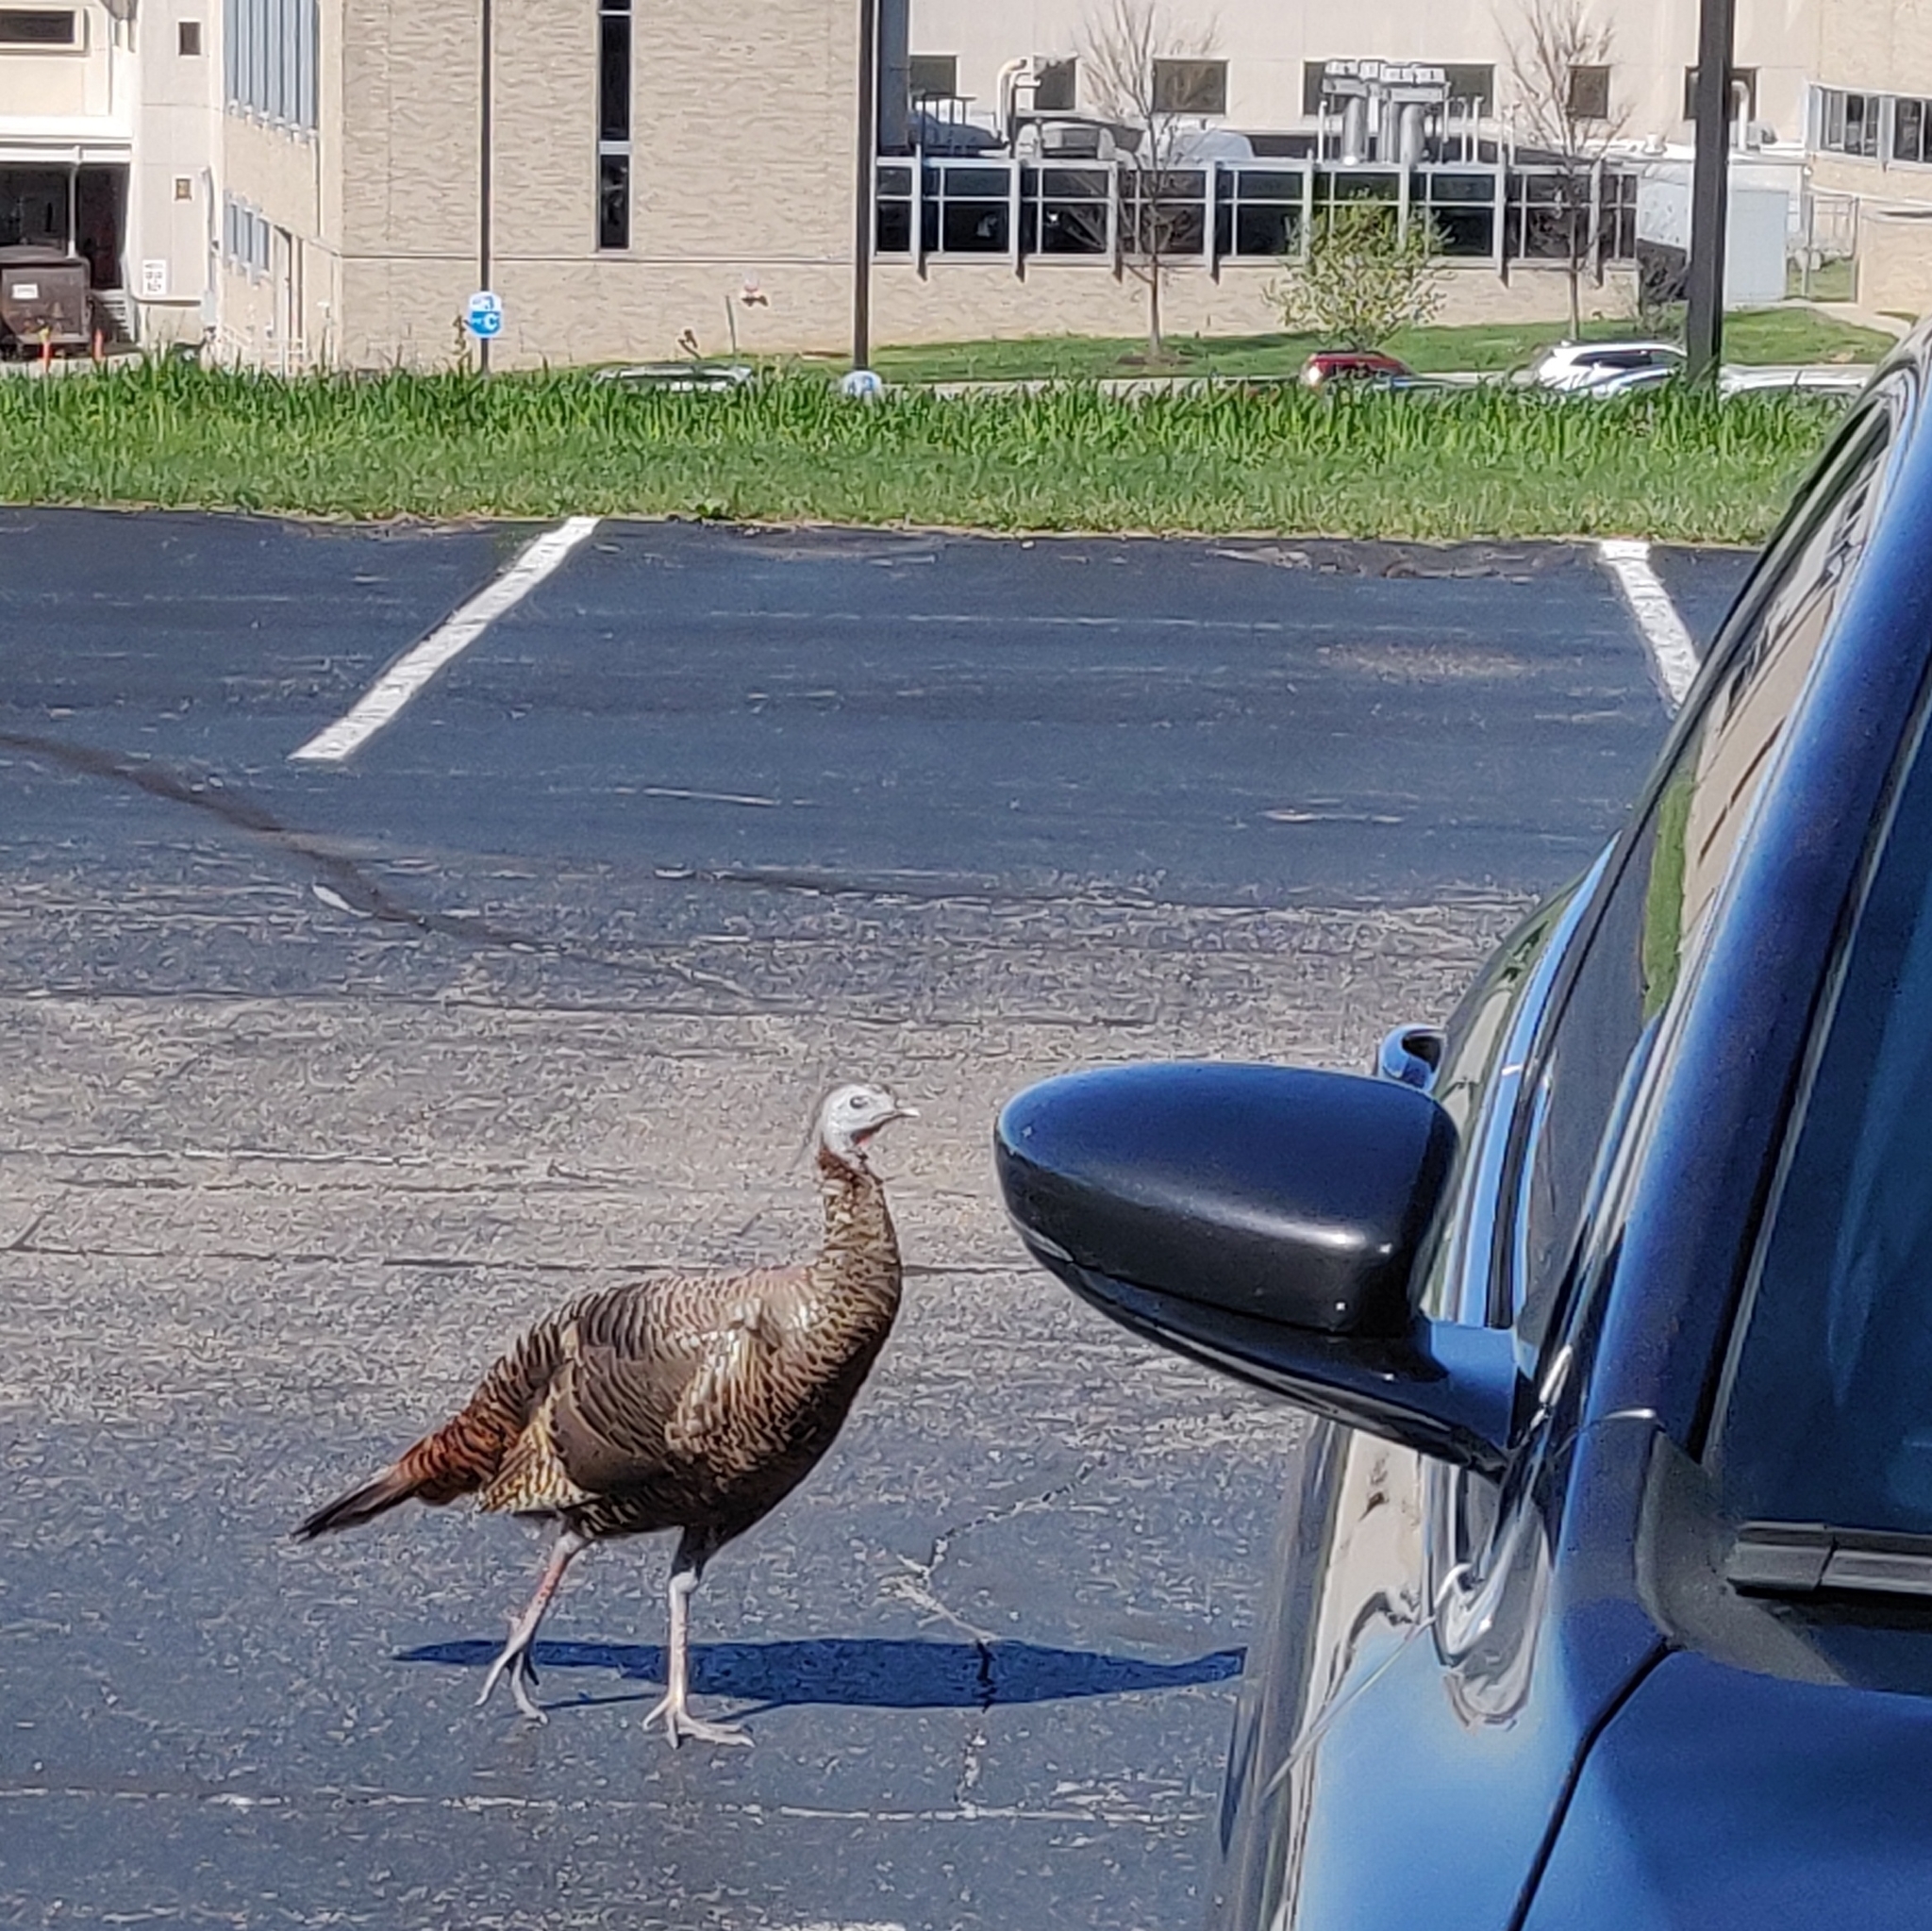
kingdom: Animalia
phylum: Chordata
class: Aves
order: Galliformes
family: Phasianidae
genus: Meleagris
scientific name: Meleagris gallopavo
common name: Wild turkey
